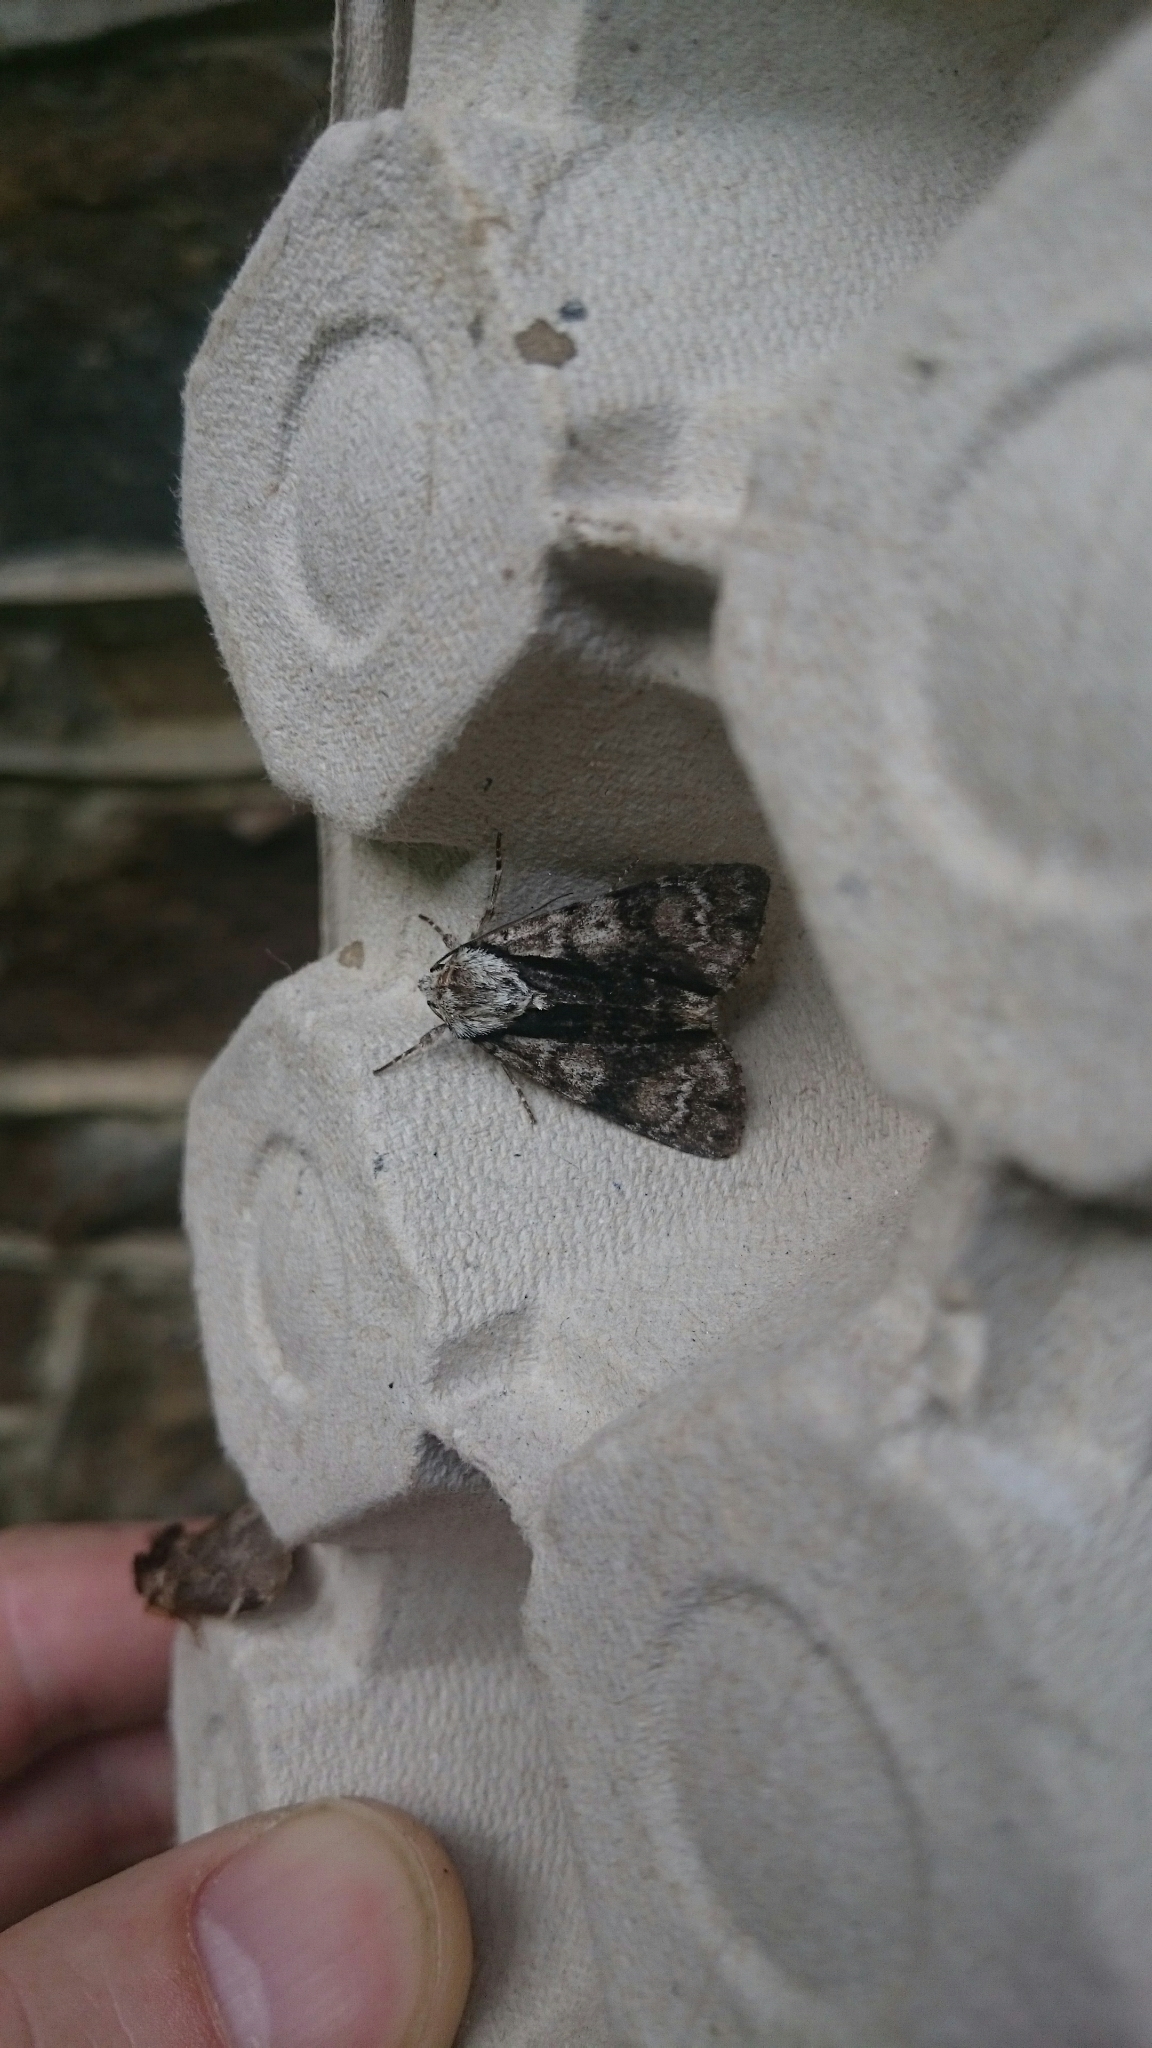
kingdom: Animalia
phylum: Arthropoda
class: Insecta
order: Lepidoptera
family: Noctuidae
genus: Acronicta
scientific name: Acronicta alni
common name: Alder moth
